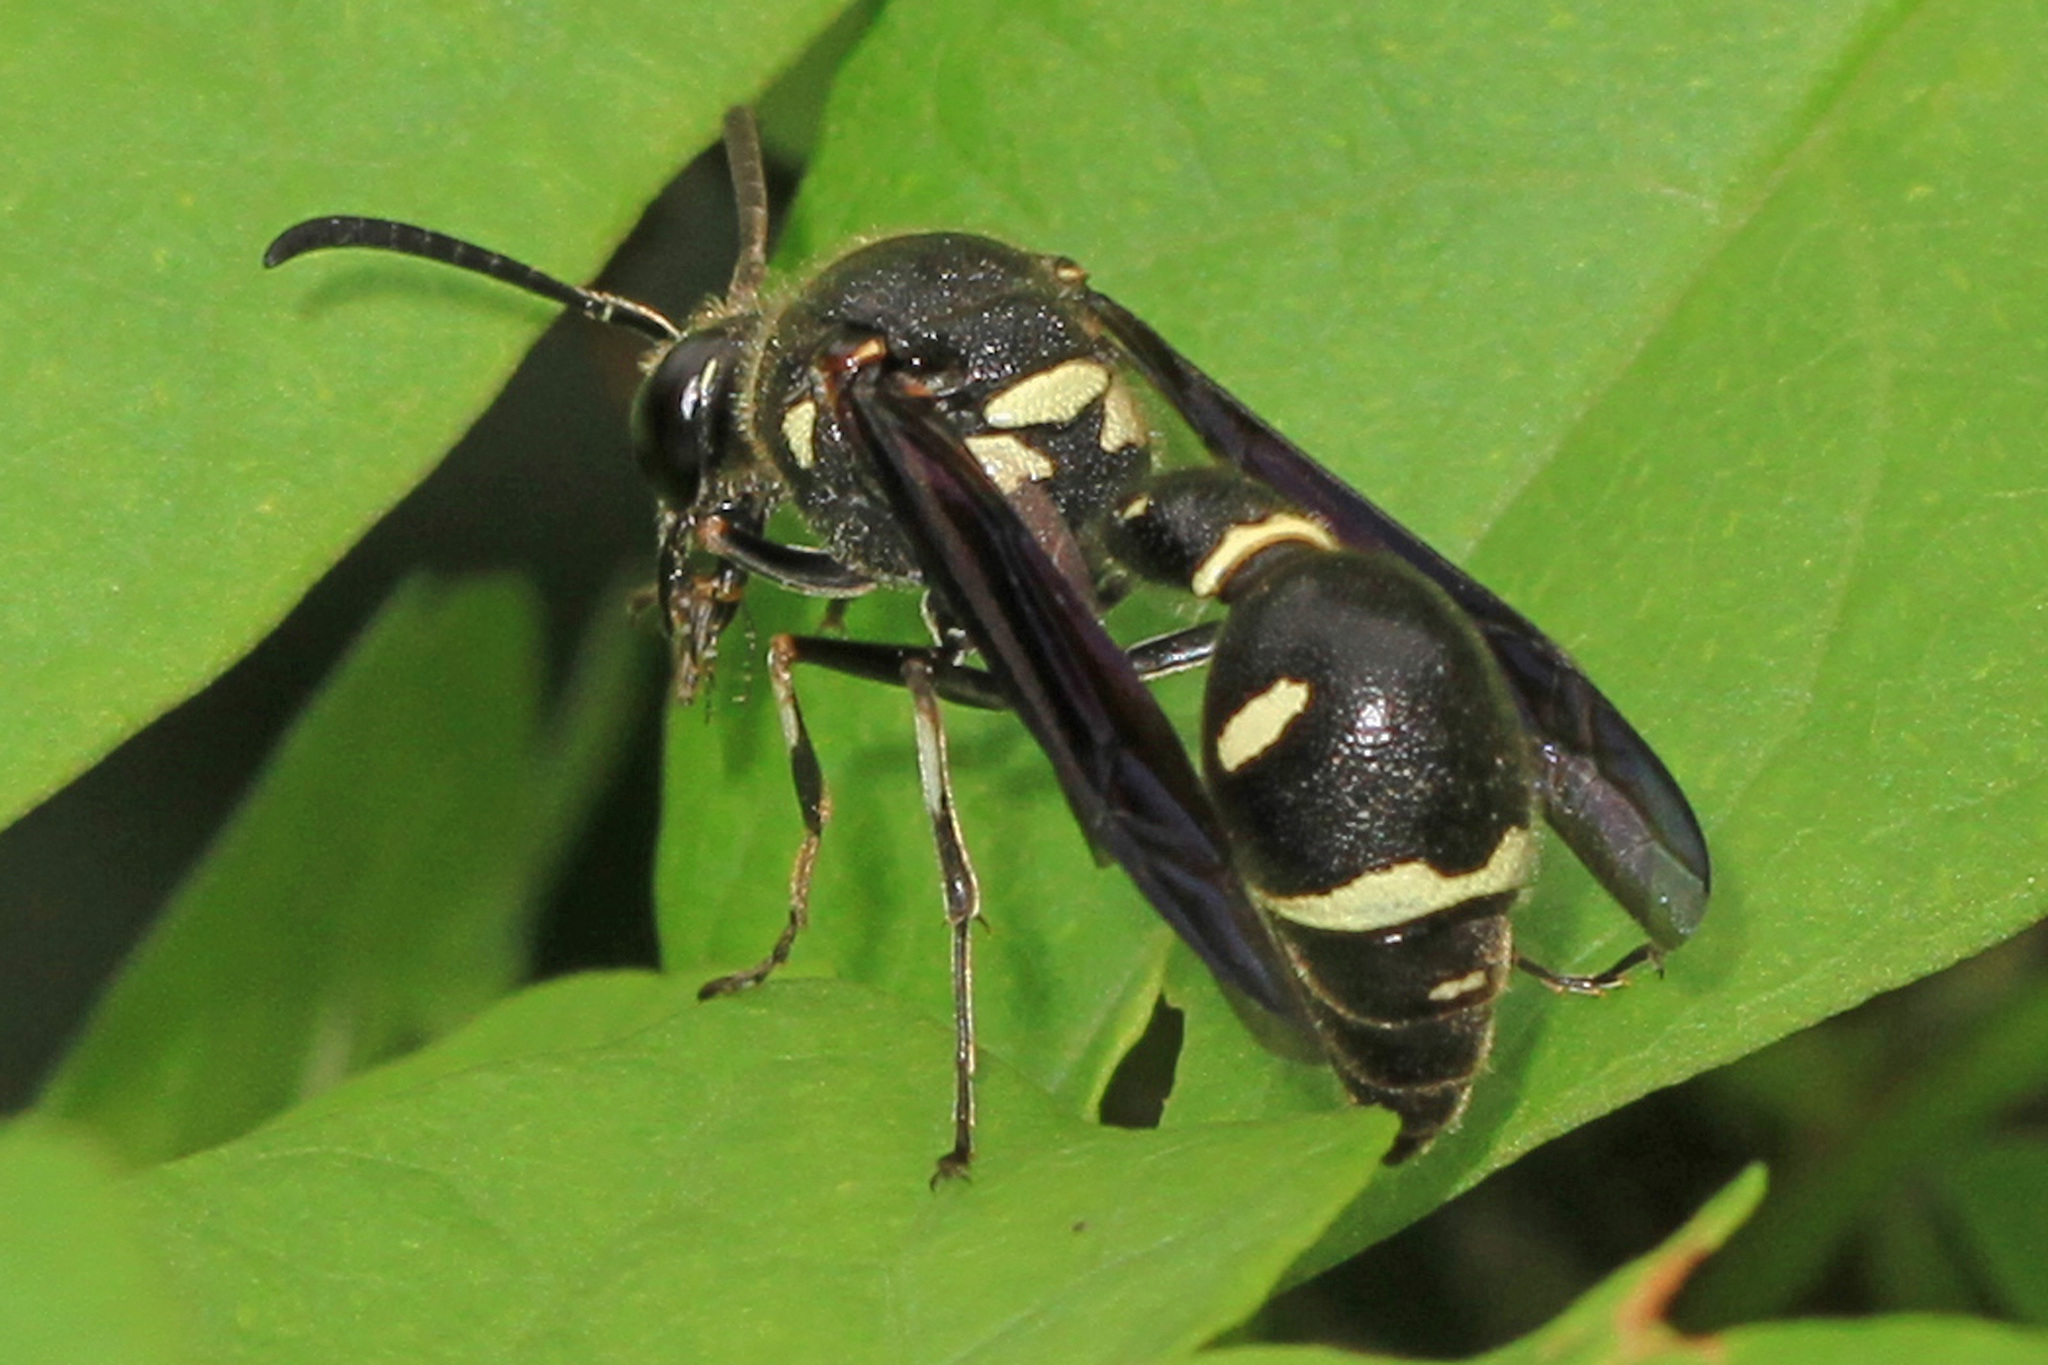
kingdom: Animalia
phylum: Arthropoda
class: Insecta
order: Hymenoptera
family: Vespidae
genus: Eumenes
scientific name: Eumenes fraternus
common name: Fraternal potter wasp
